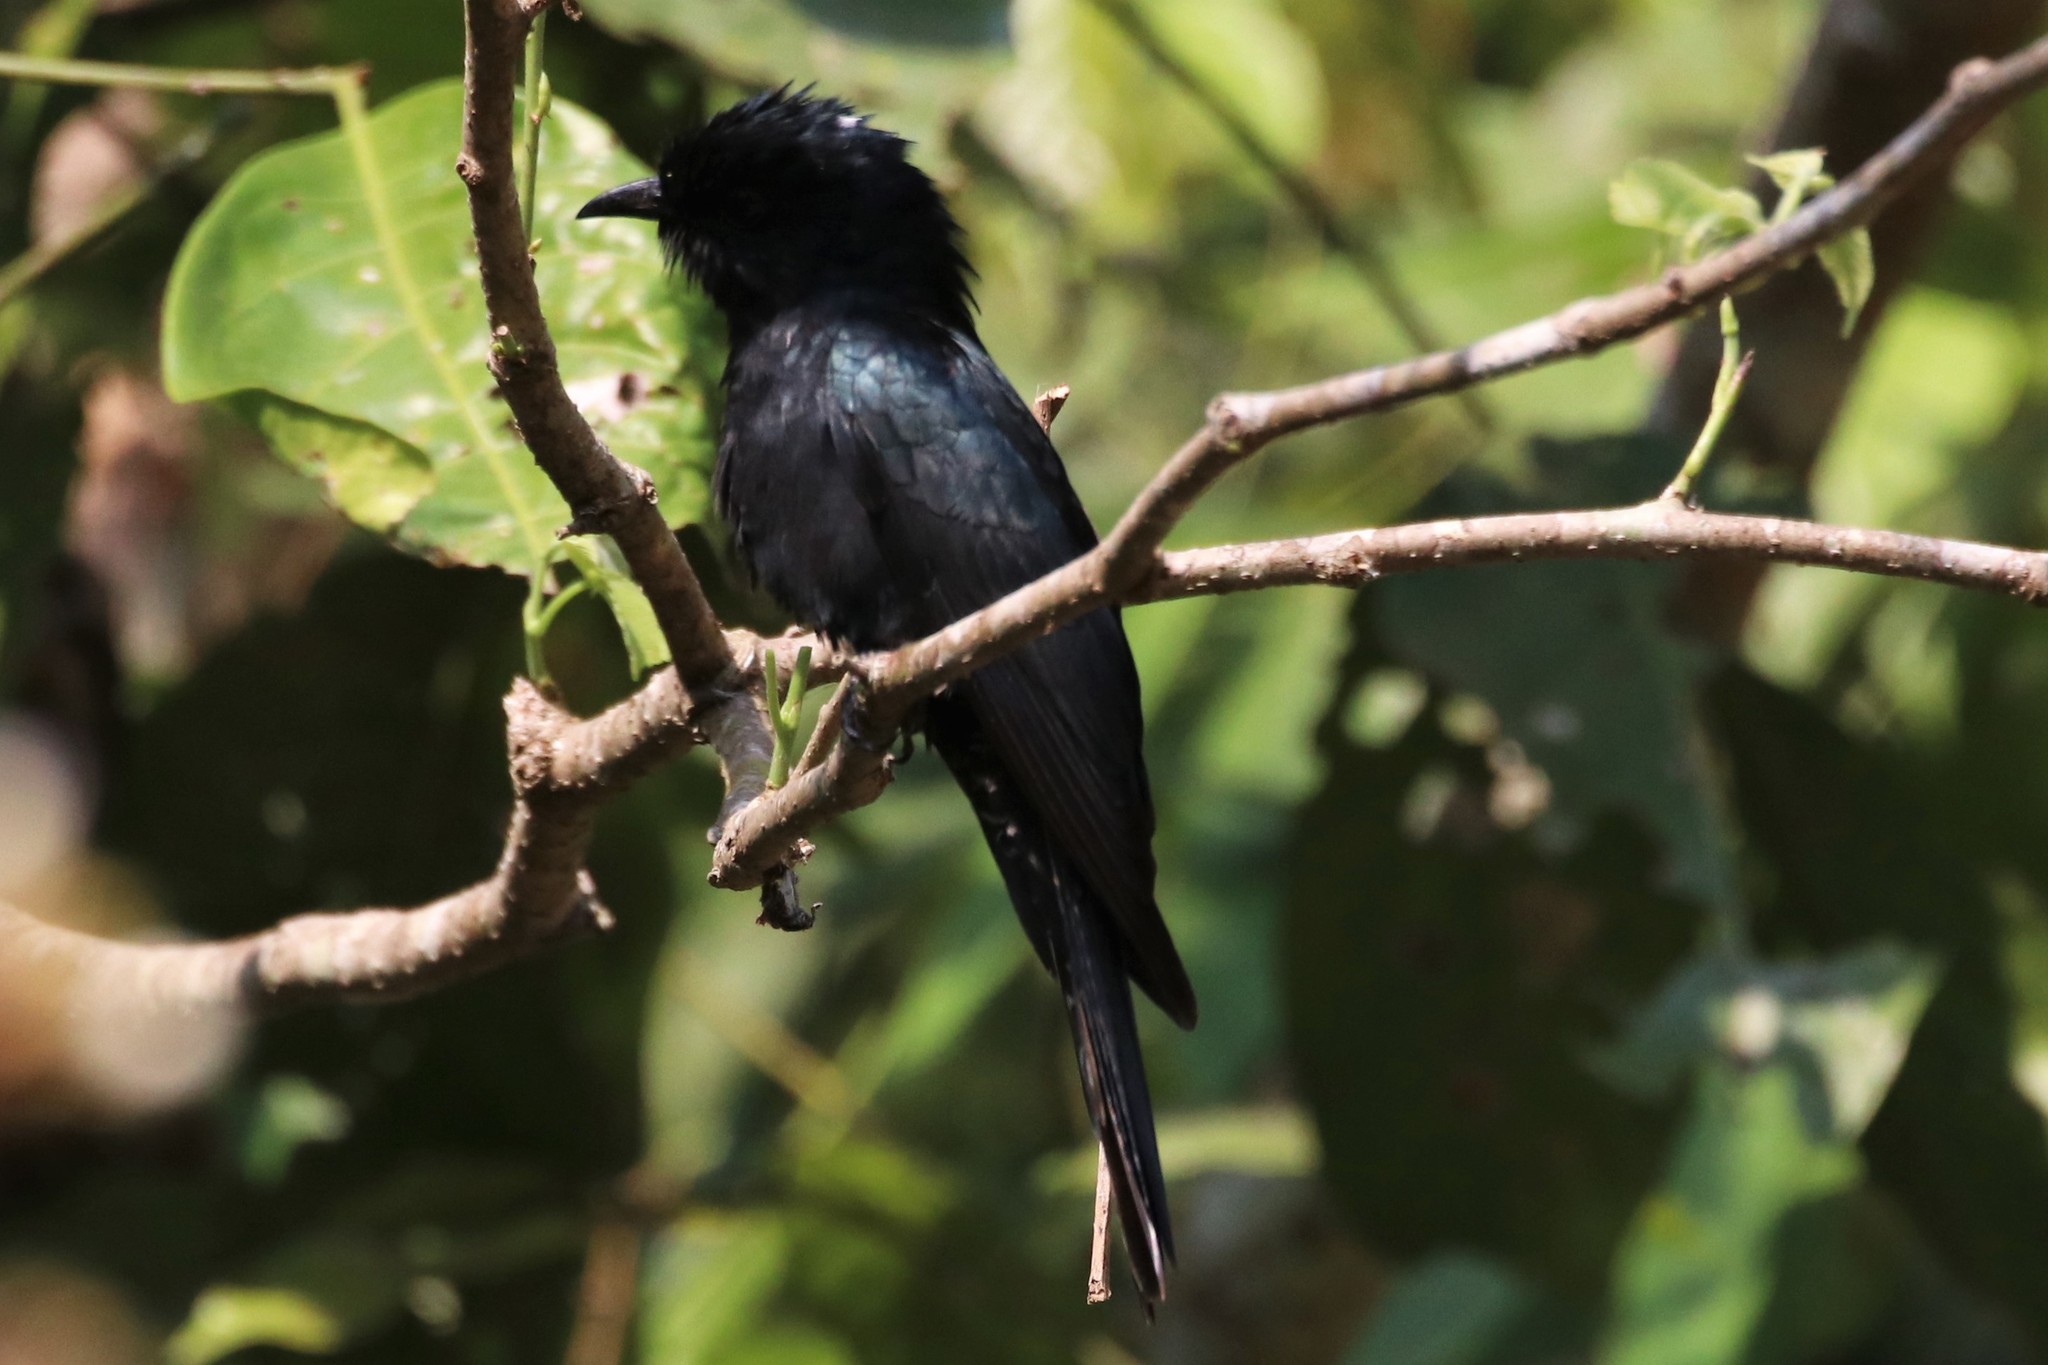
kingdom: Animalia
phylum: Chordata
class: Aves
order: Cuculiformes
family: Cuculidae
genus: Surniculus
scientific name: Surniculus lugubris
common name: Square-tailed drongo-cuckoo
